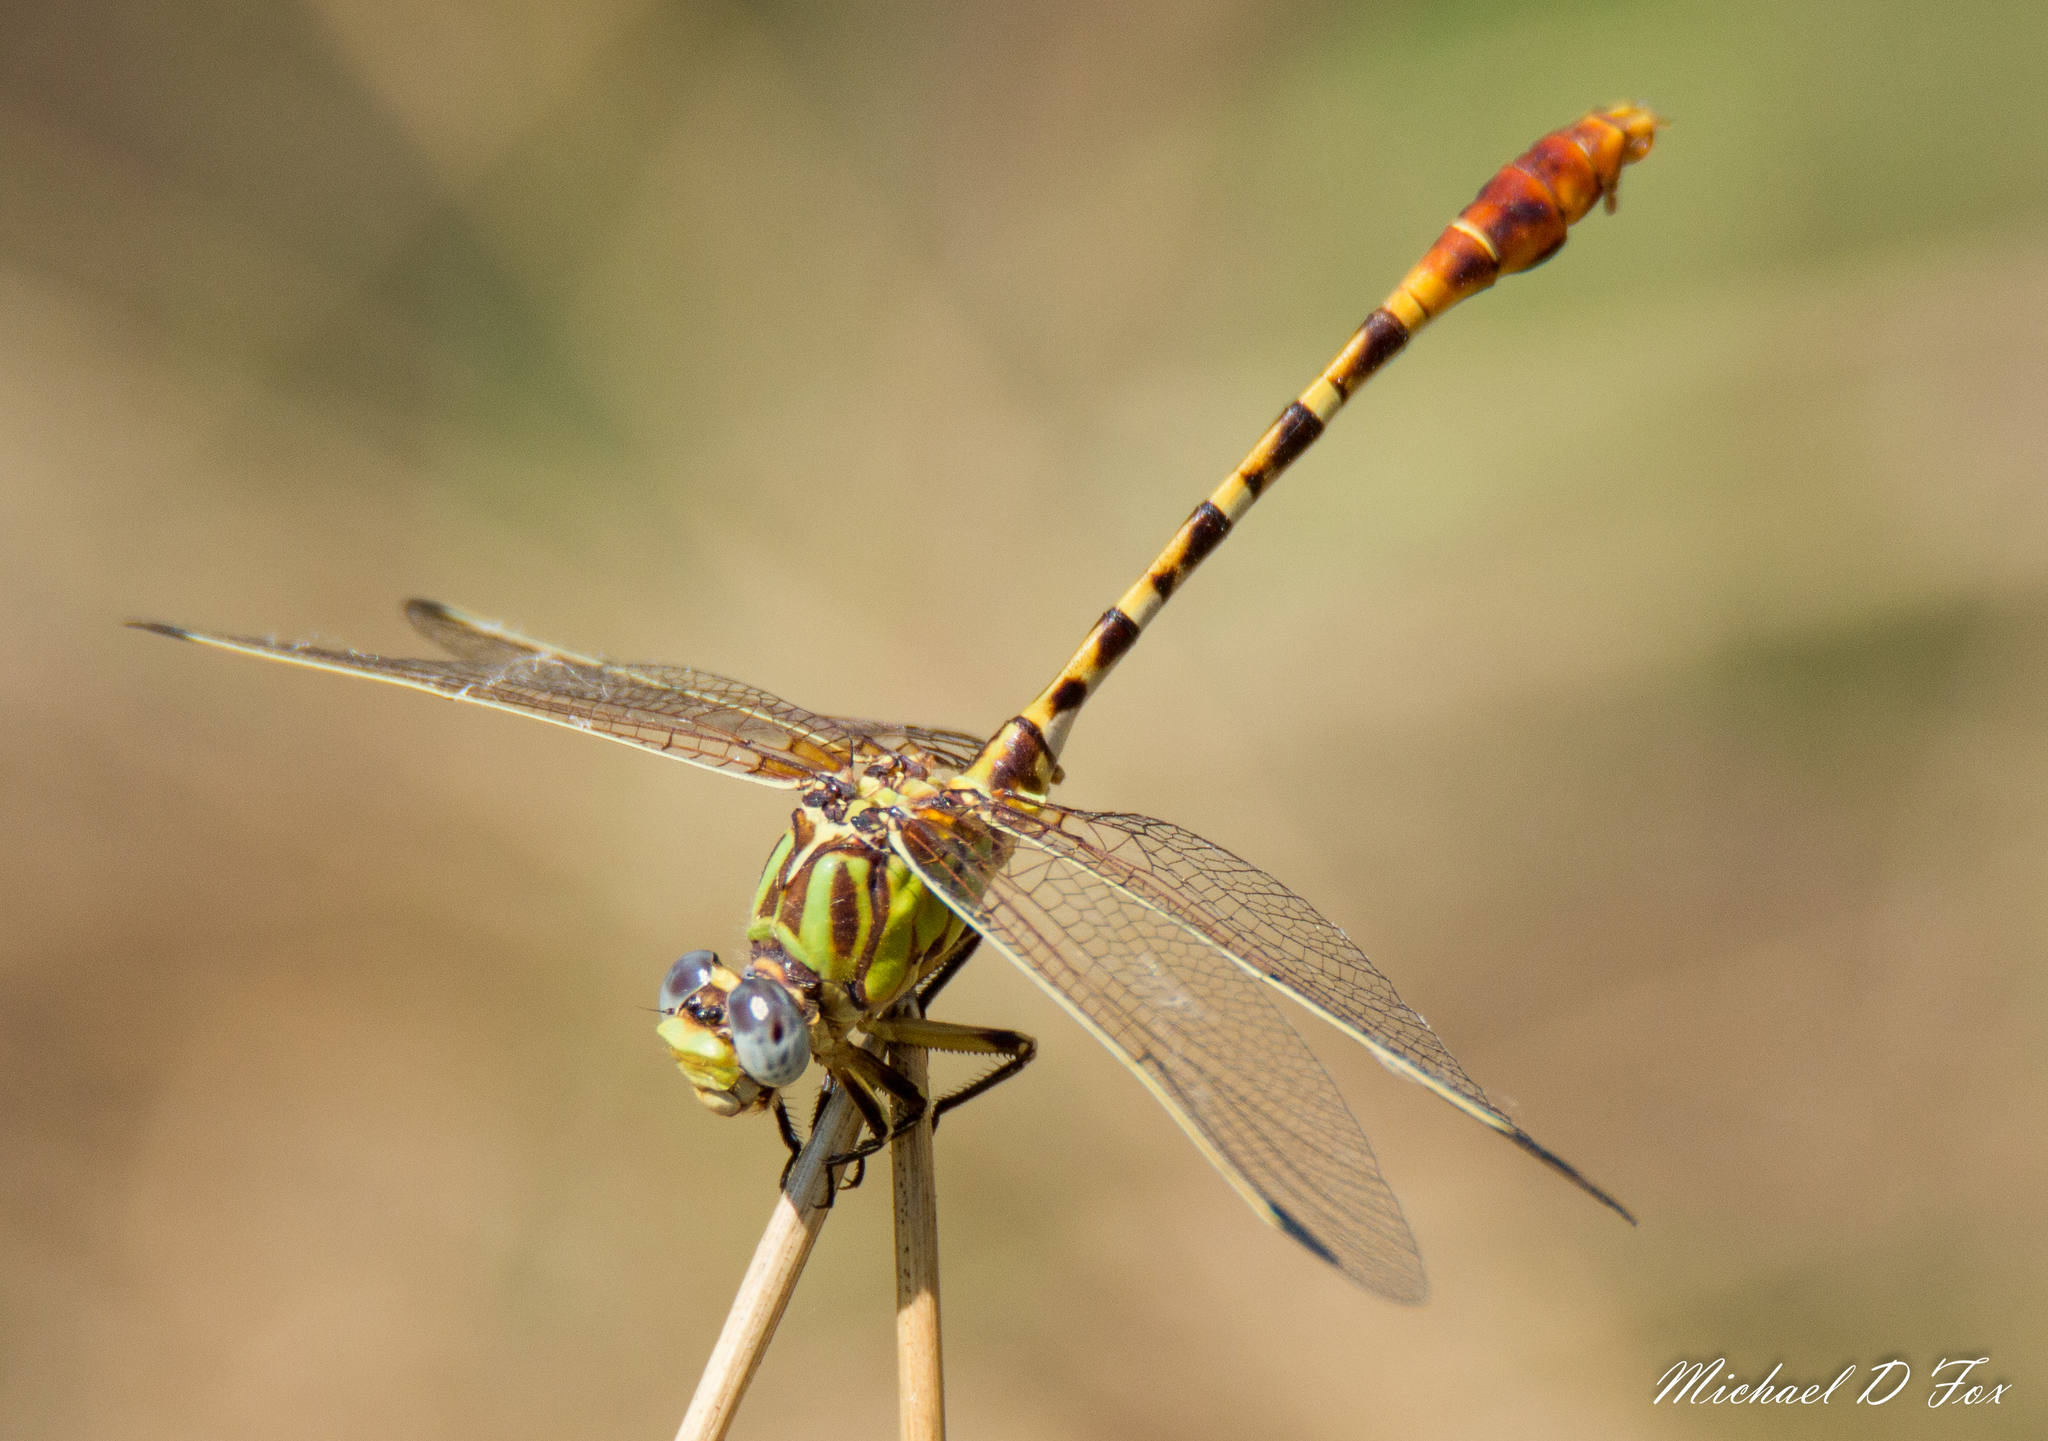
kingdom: Animalia
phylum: Arthropoda
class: Insecta
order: Odonata
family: Gomphidae
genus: Erpetogomphus
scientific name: Erpetogomphus designatus
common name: Eastern ringtail
